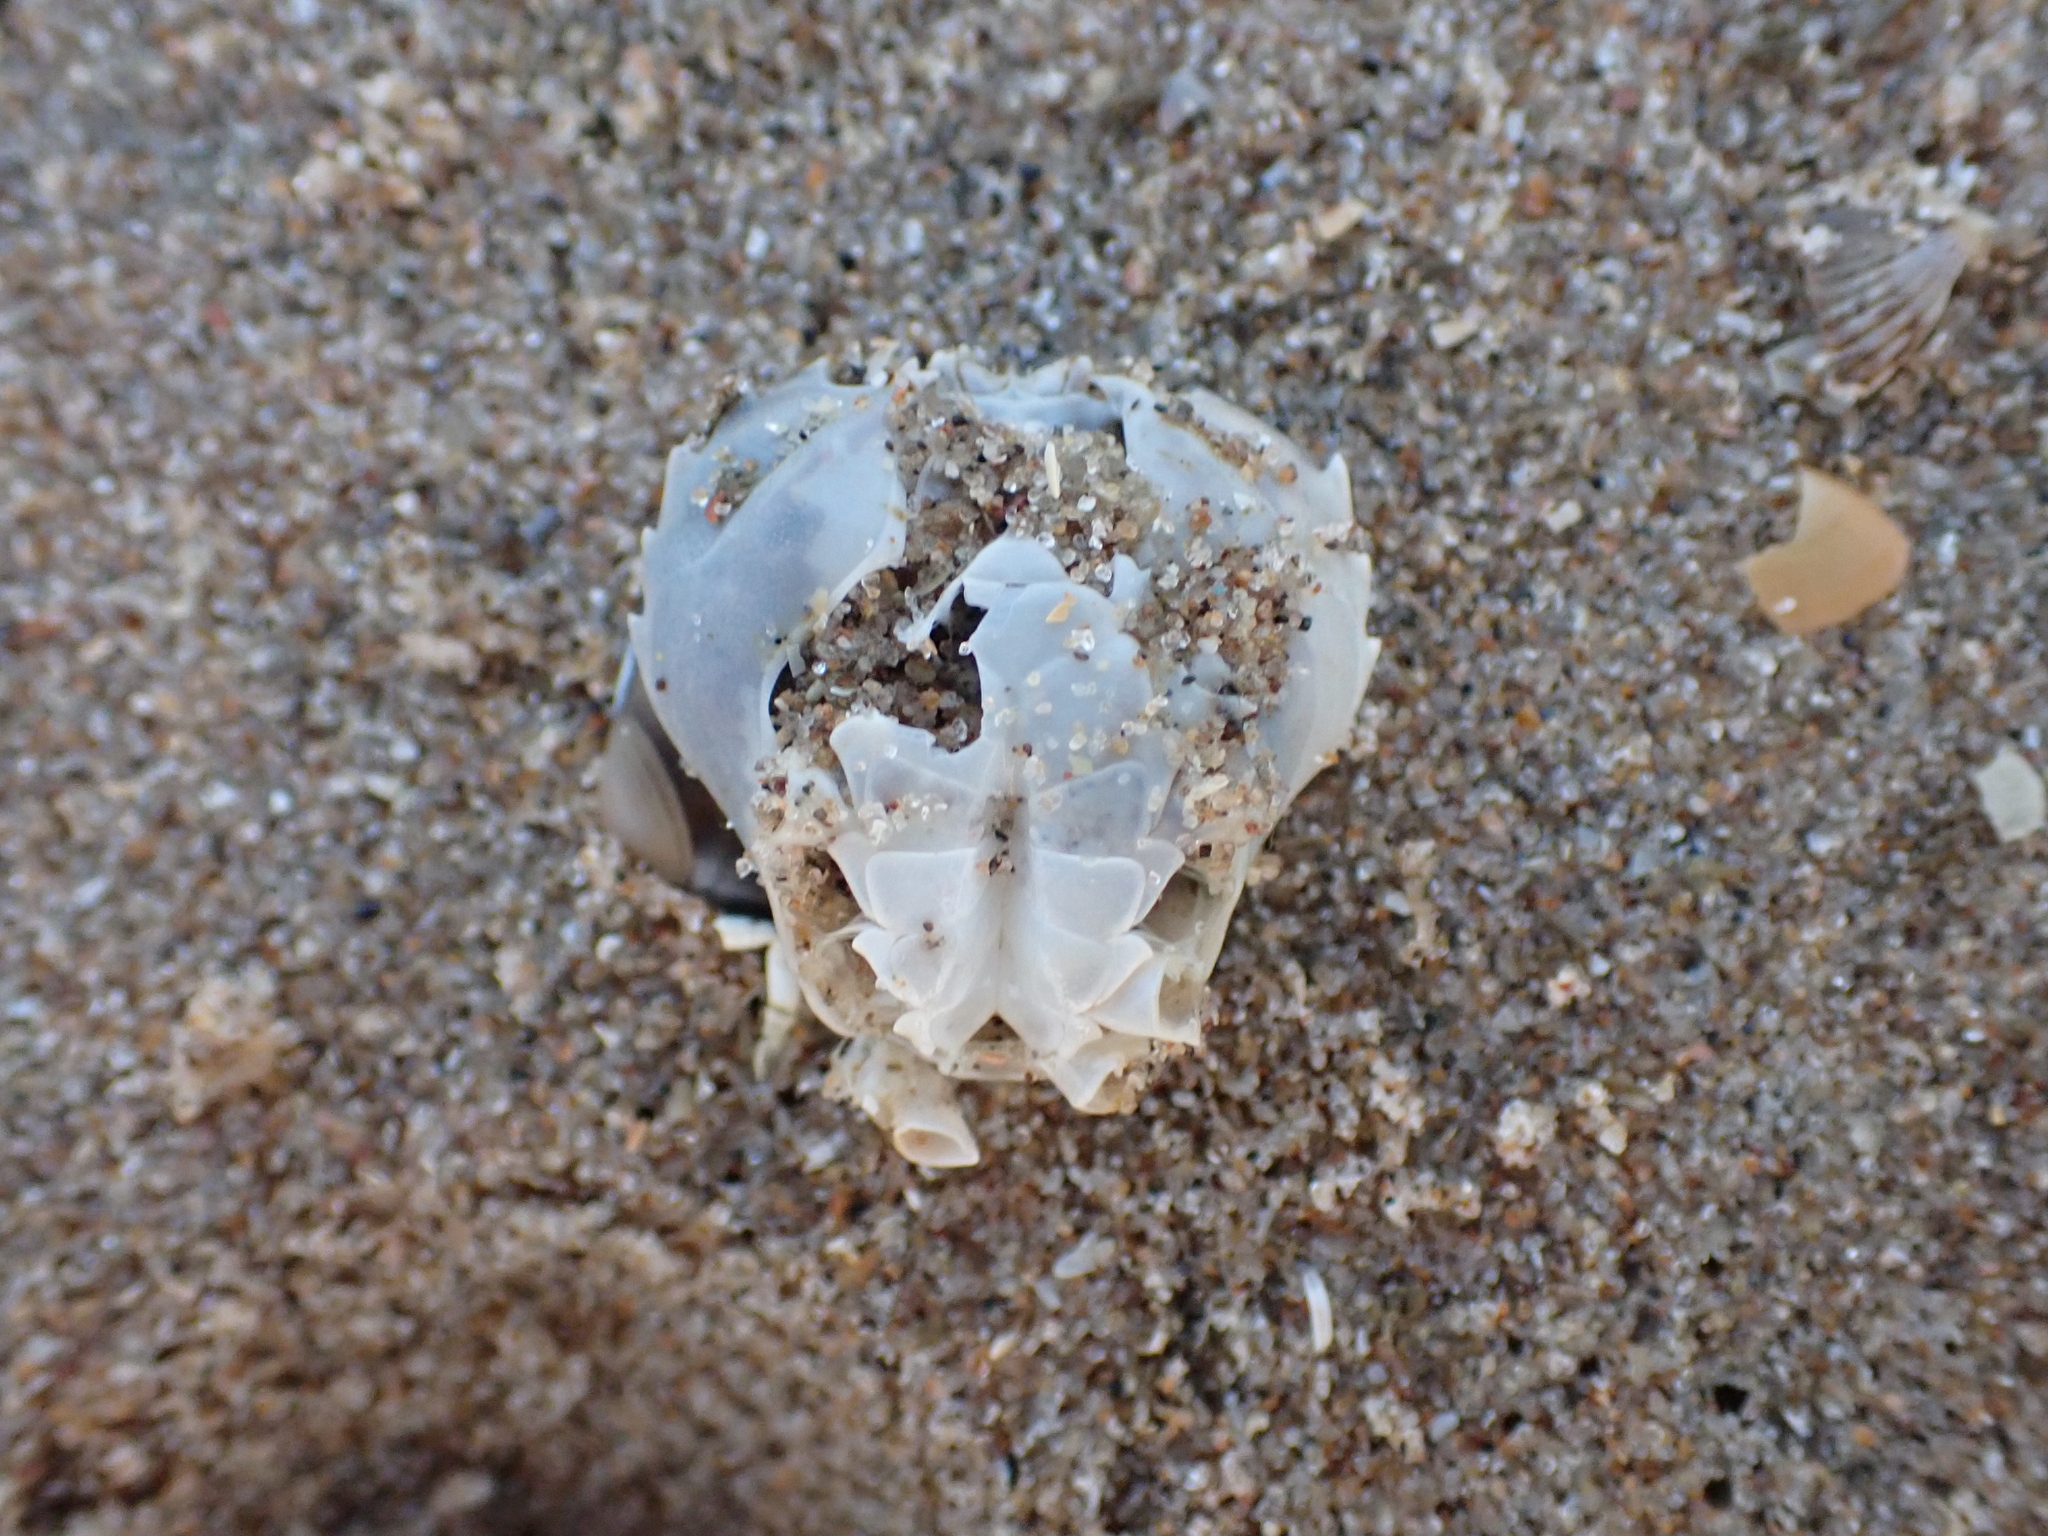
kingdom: Animalia
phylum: Arthropoda
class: Malacostraca
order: Decapoda
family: Carcinidae
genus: Portumnus
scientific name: Portumnus latipes
